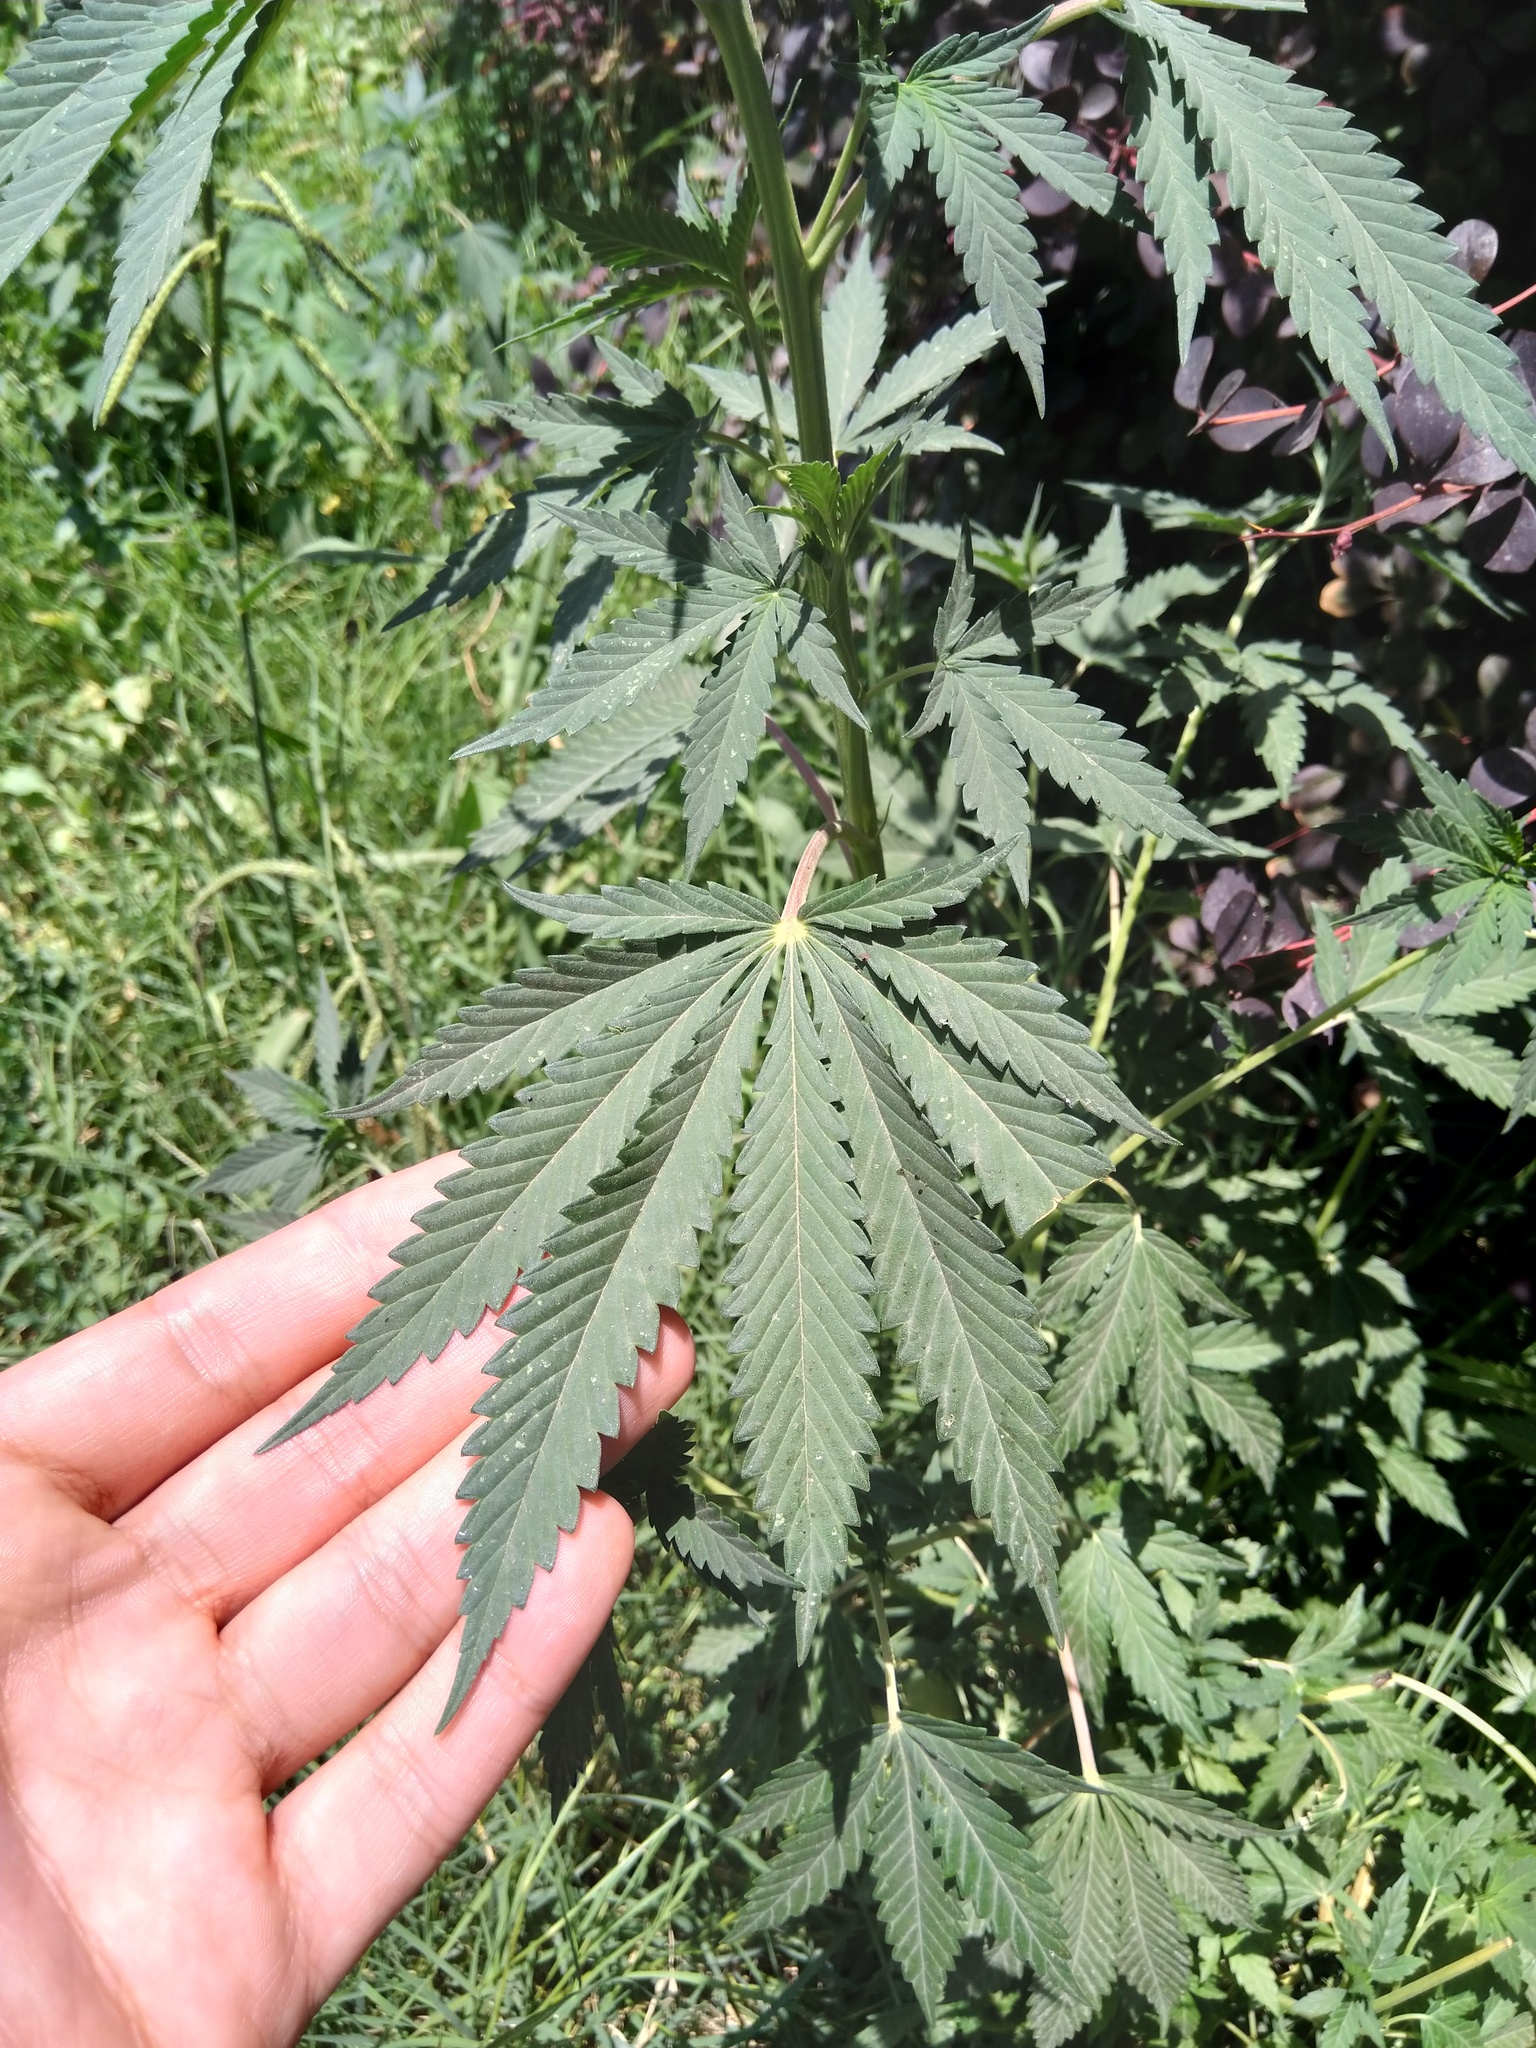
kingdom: Plantae
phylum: Tracheophyta
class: Magnoliopsida
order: Rosales
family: Cannabaceae
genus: Cannabis
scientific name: Cannabis sativa
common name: Hemp
